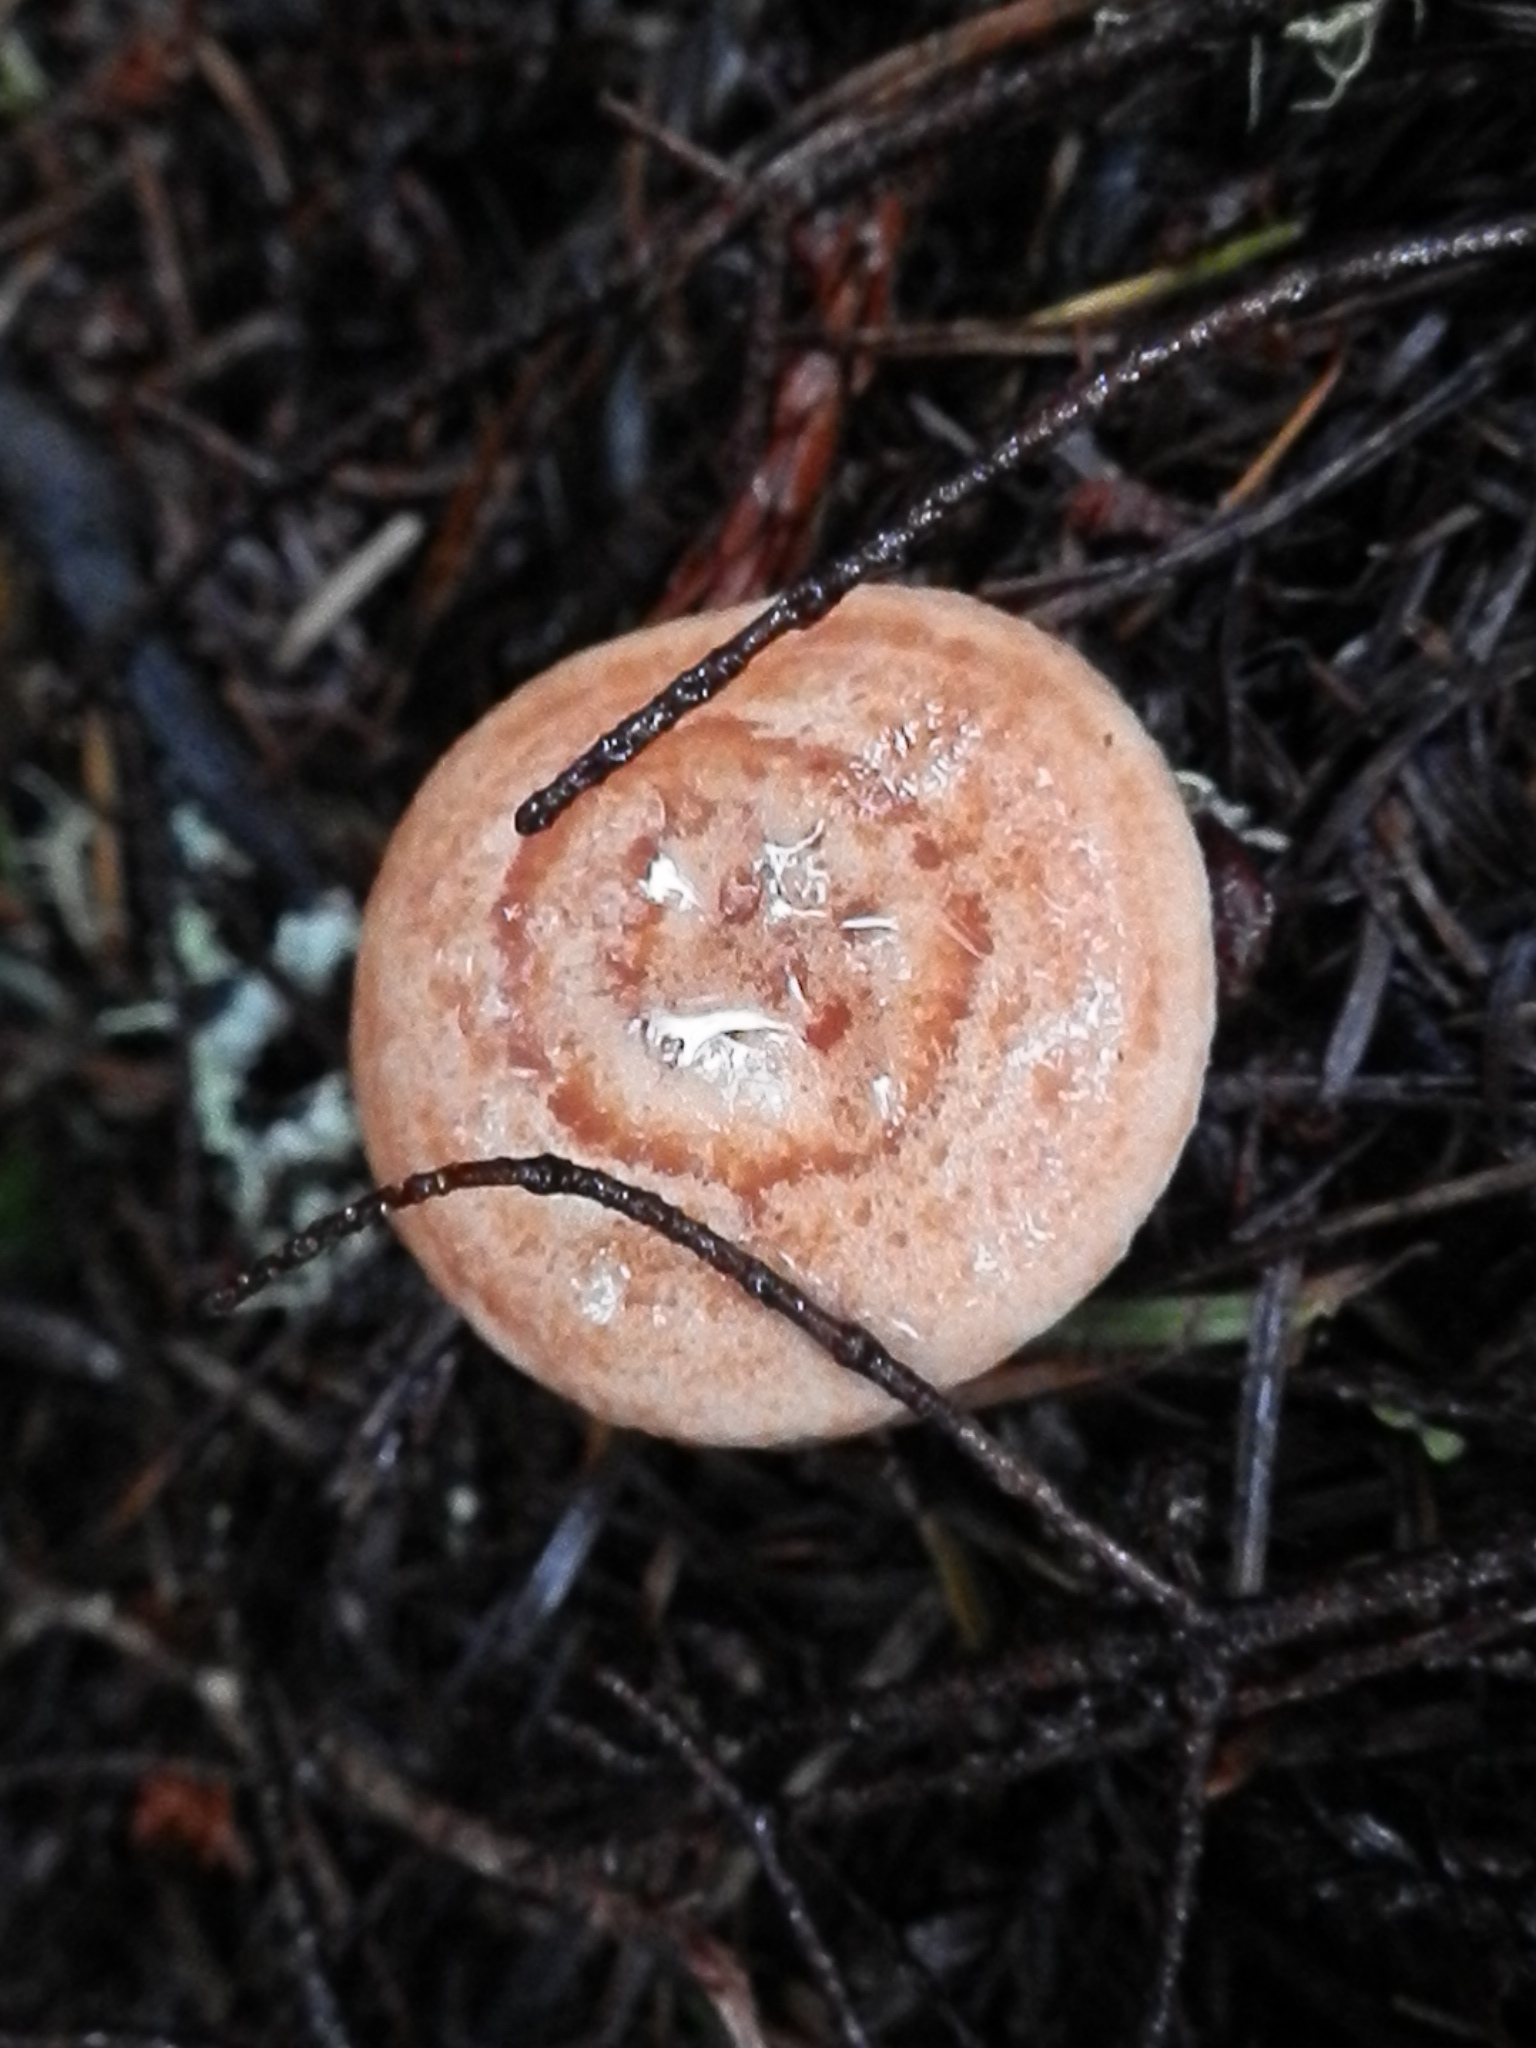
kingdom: Fungi
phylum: Basidiomycota
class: Agaricomycetes
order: Russulales
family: Russulaceae
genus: Lactarius
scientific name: Lactarius xanthogalactus
